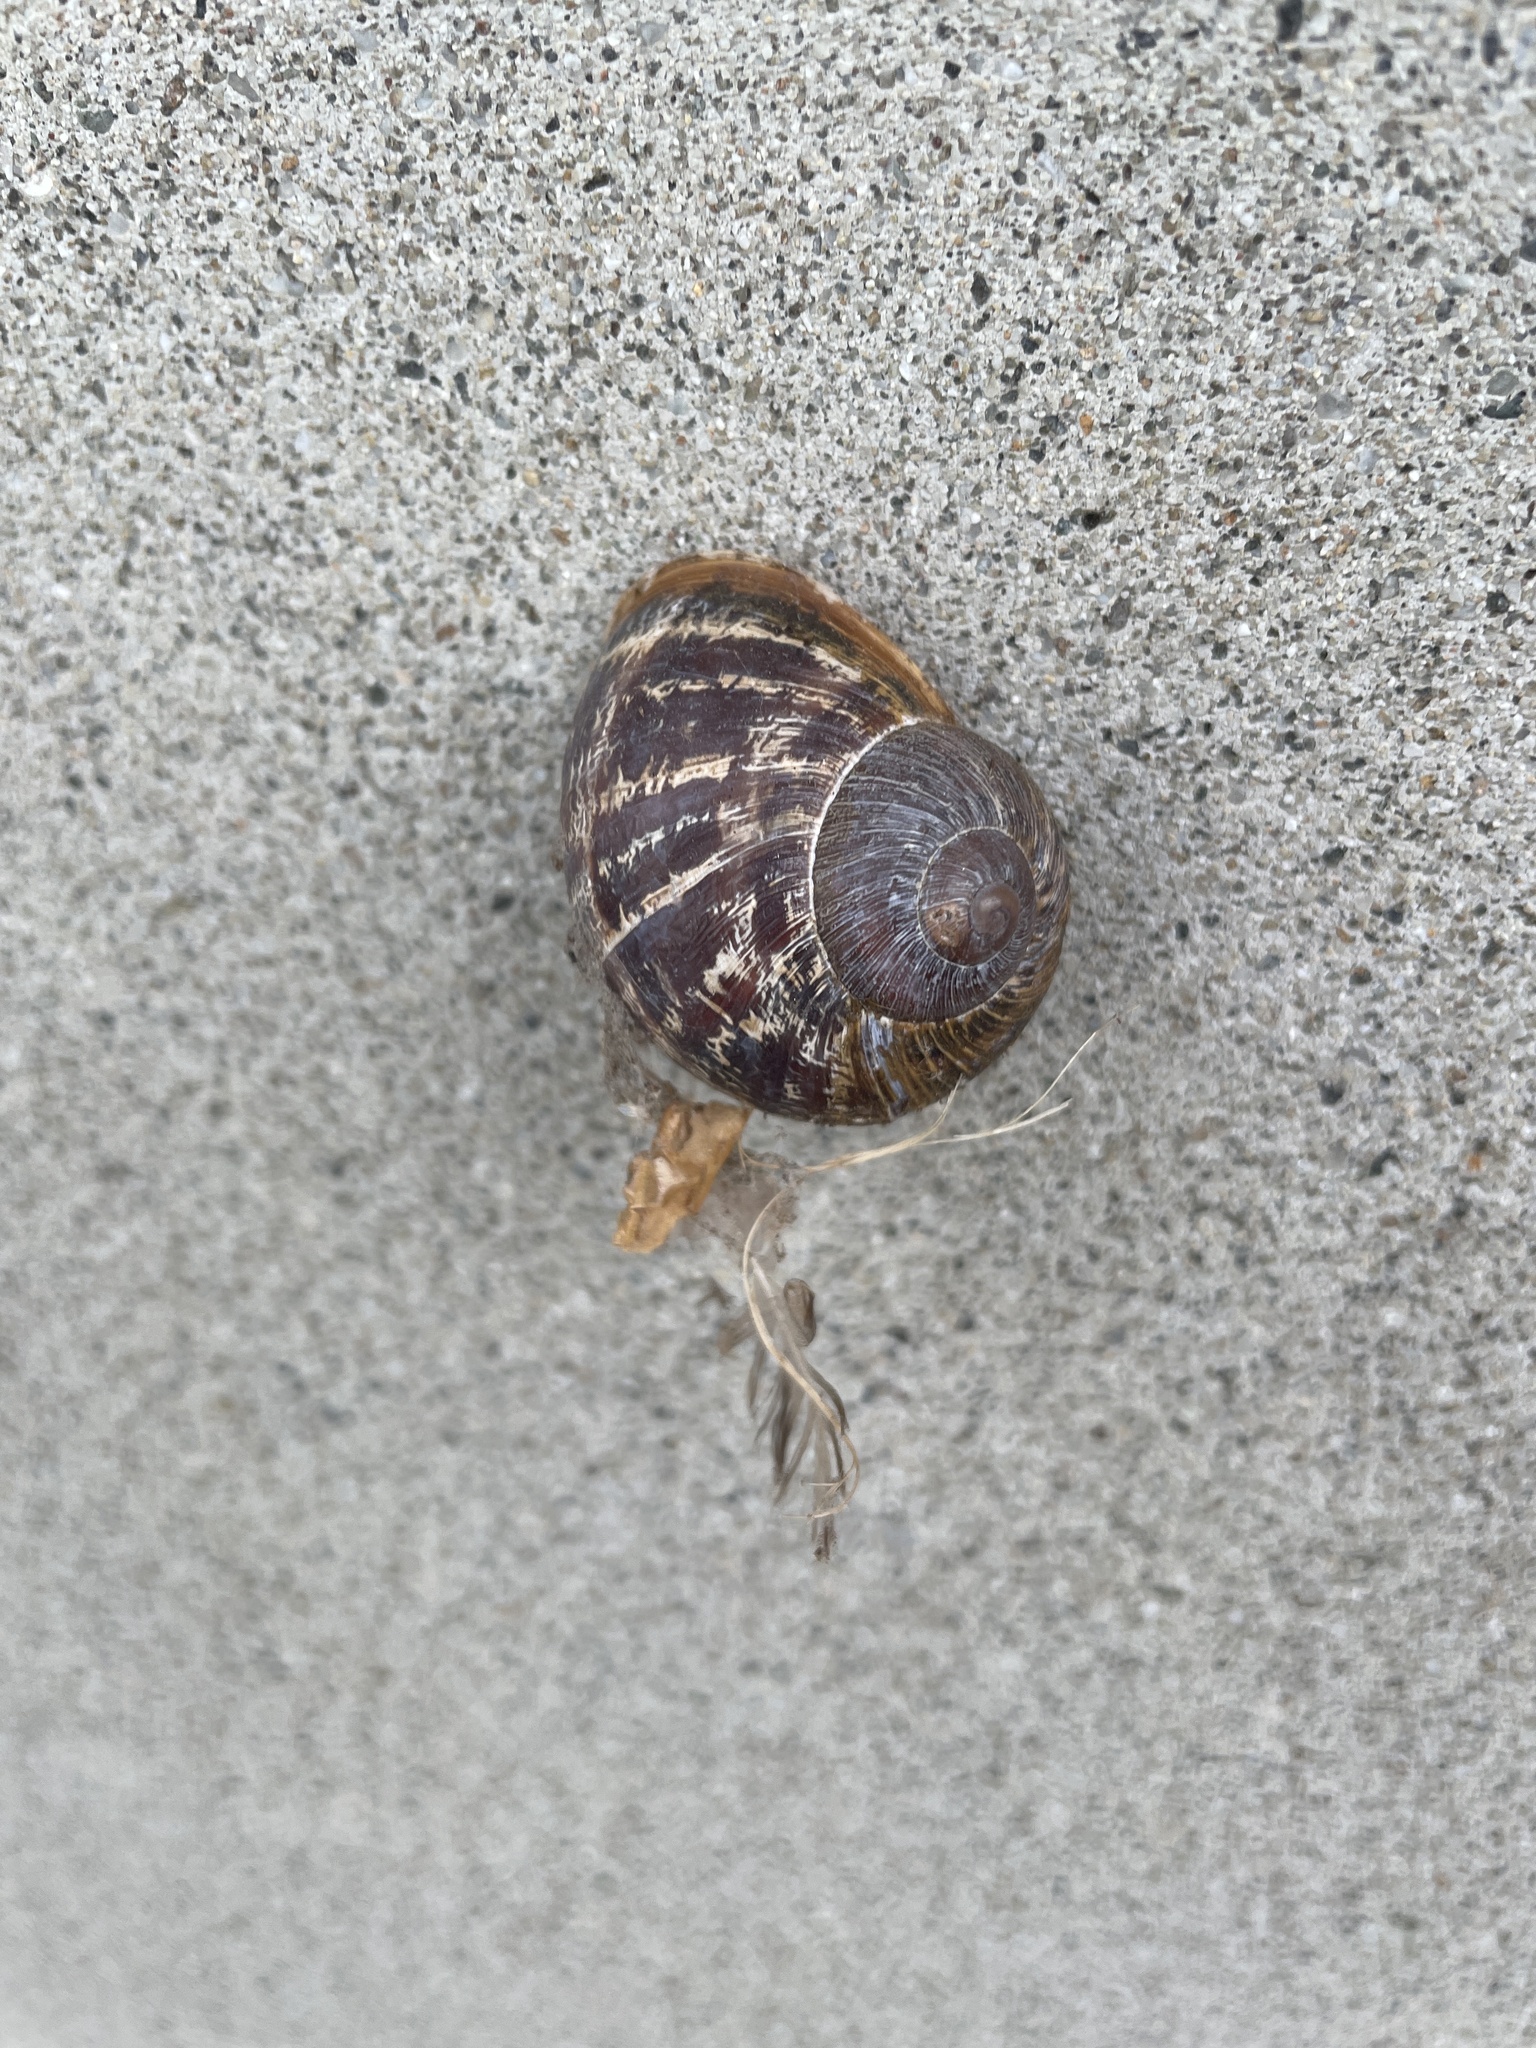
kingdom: Animalia
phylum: Mollusca
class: Gastropoda
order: Stylommatophora
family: Helicidae
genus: Cornu
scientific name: Cornu aspersum
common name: Brown garden snail
